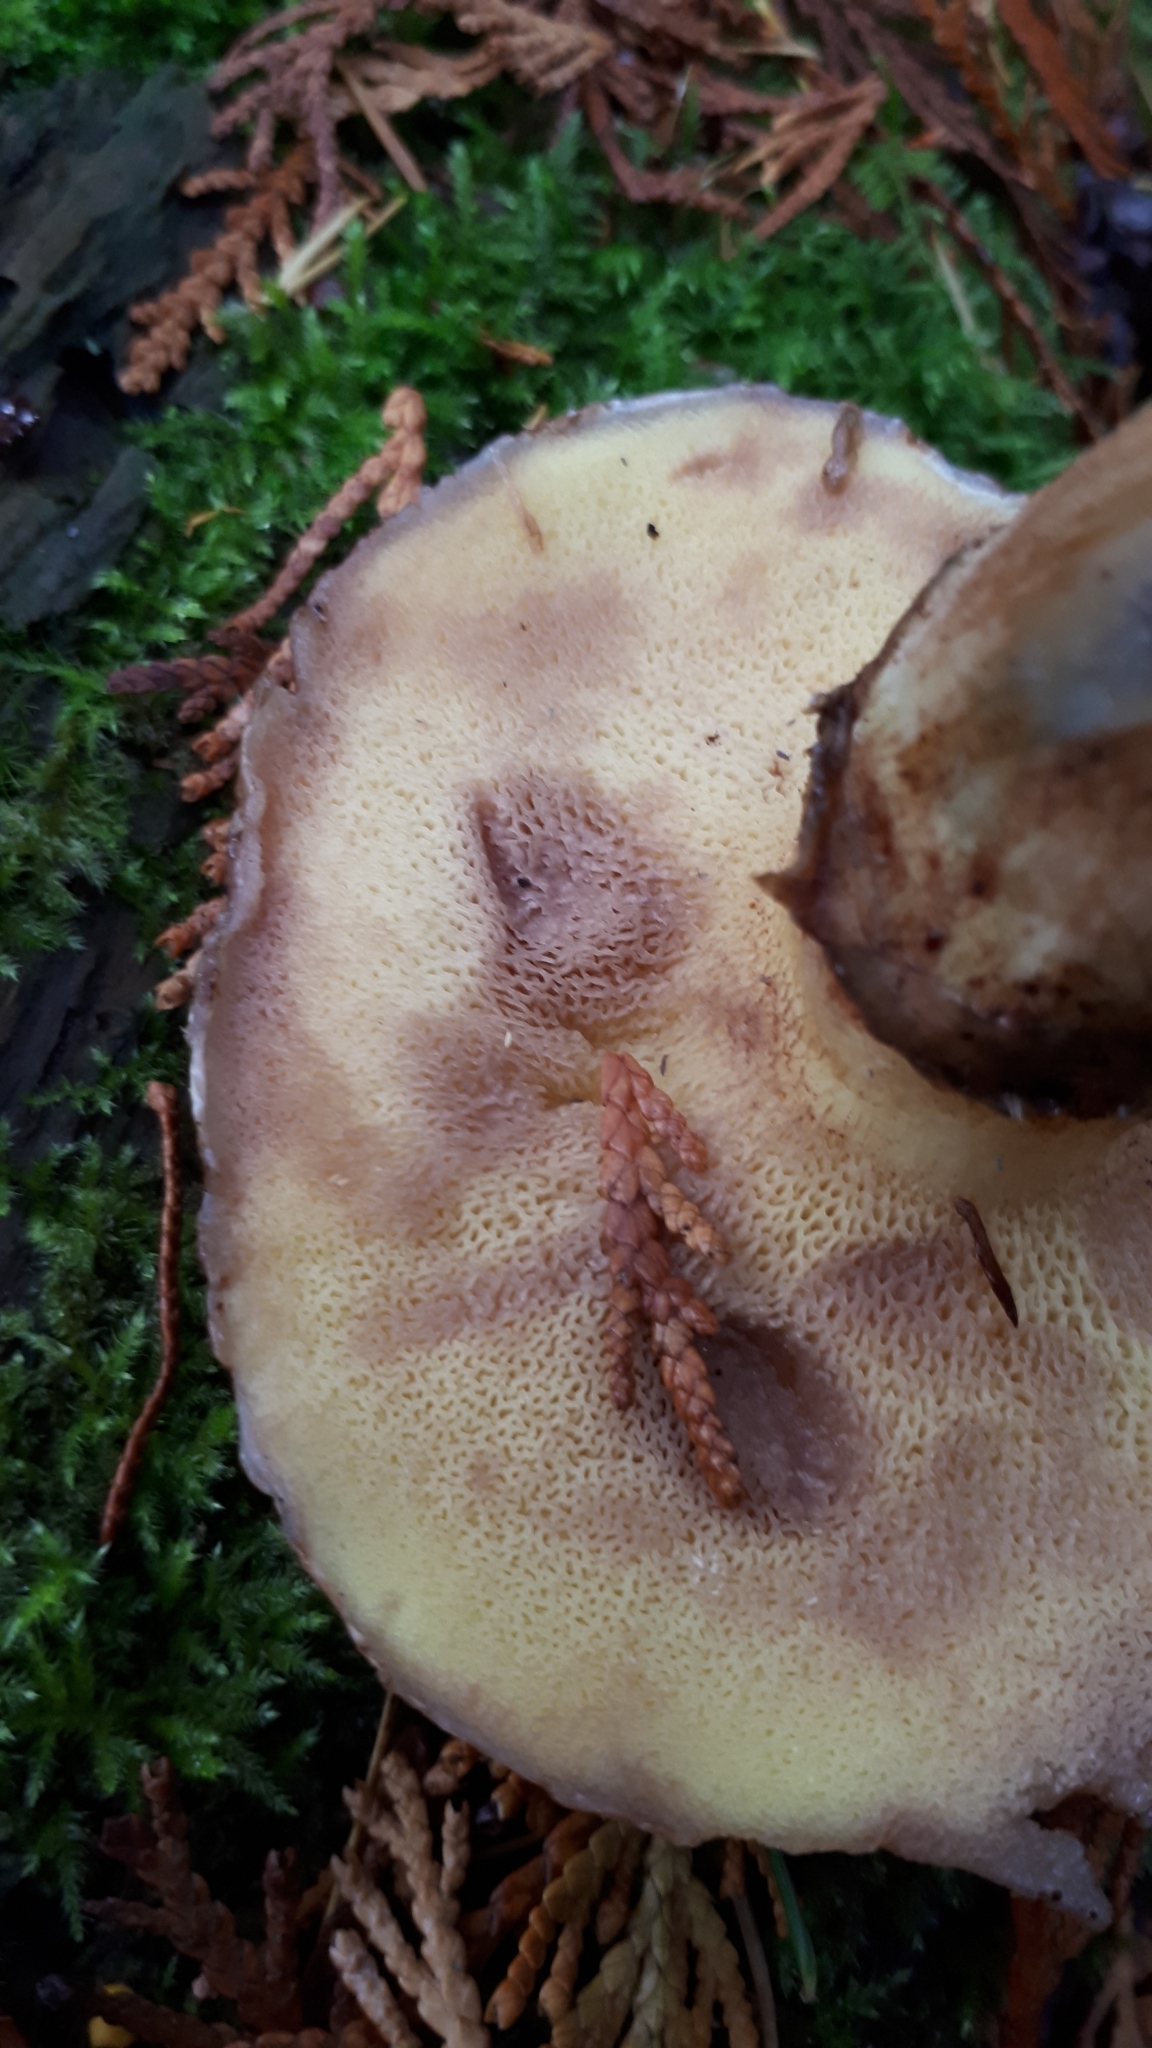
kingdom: Fungi
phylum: Basidiomycota
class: Agaricomycetes
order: Boletales
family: Boletaceae
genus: Aureoboletus
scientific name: Aureoboletus mirabilis
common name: Admirable bolete
